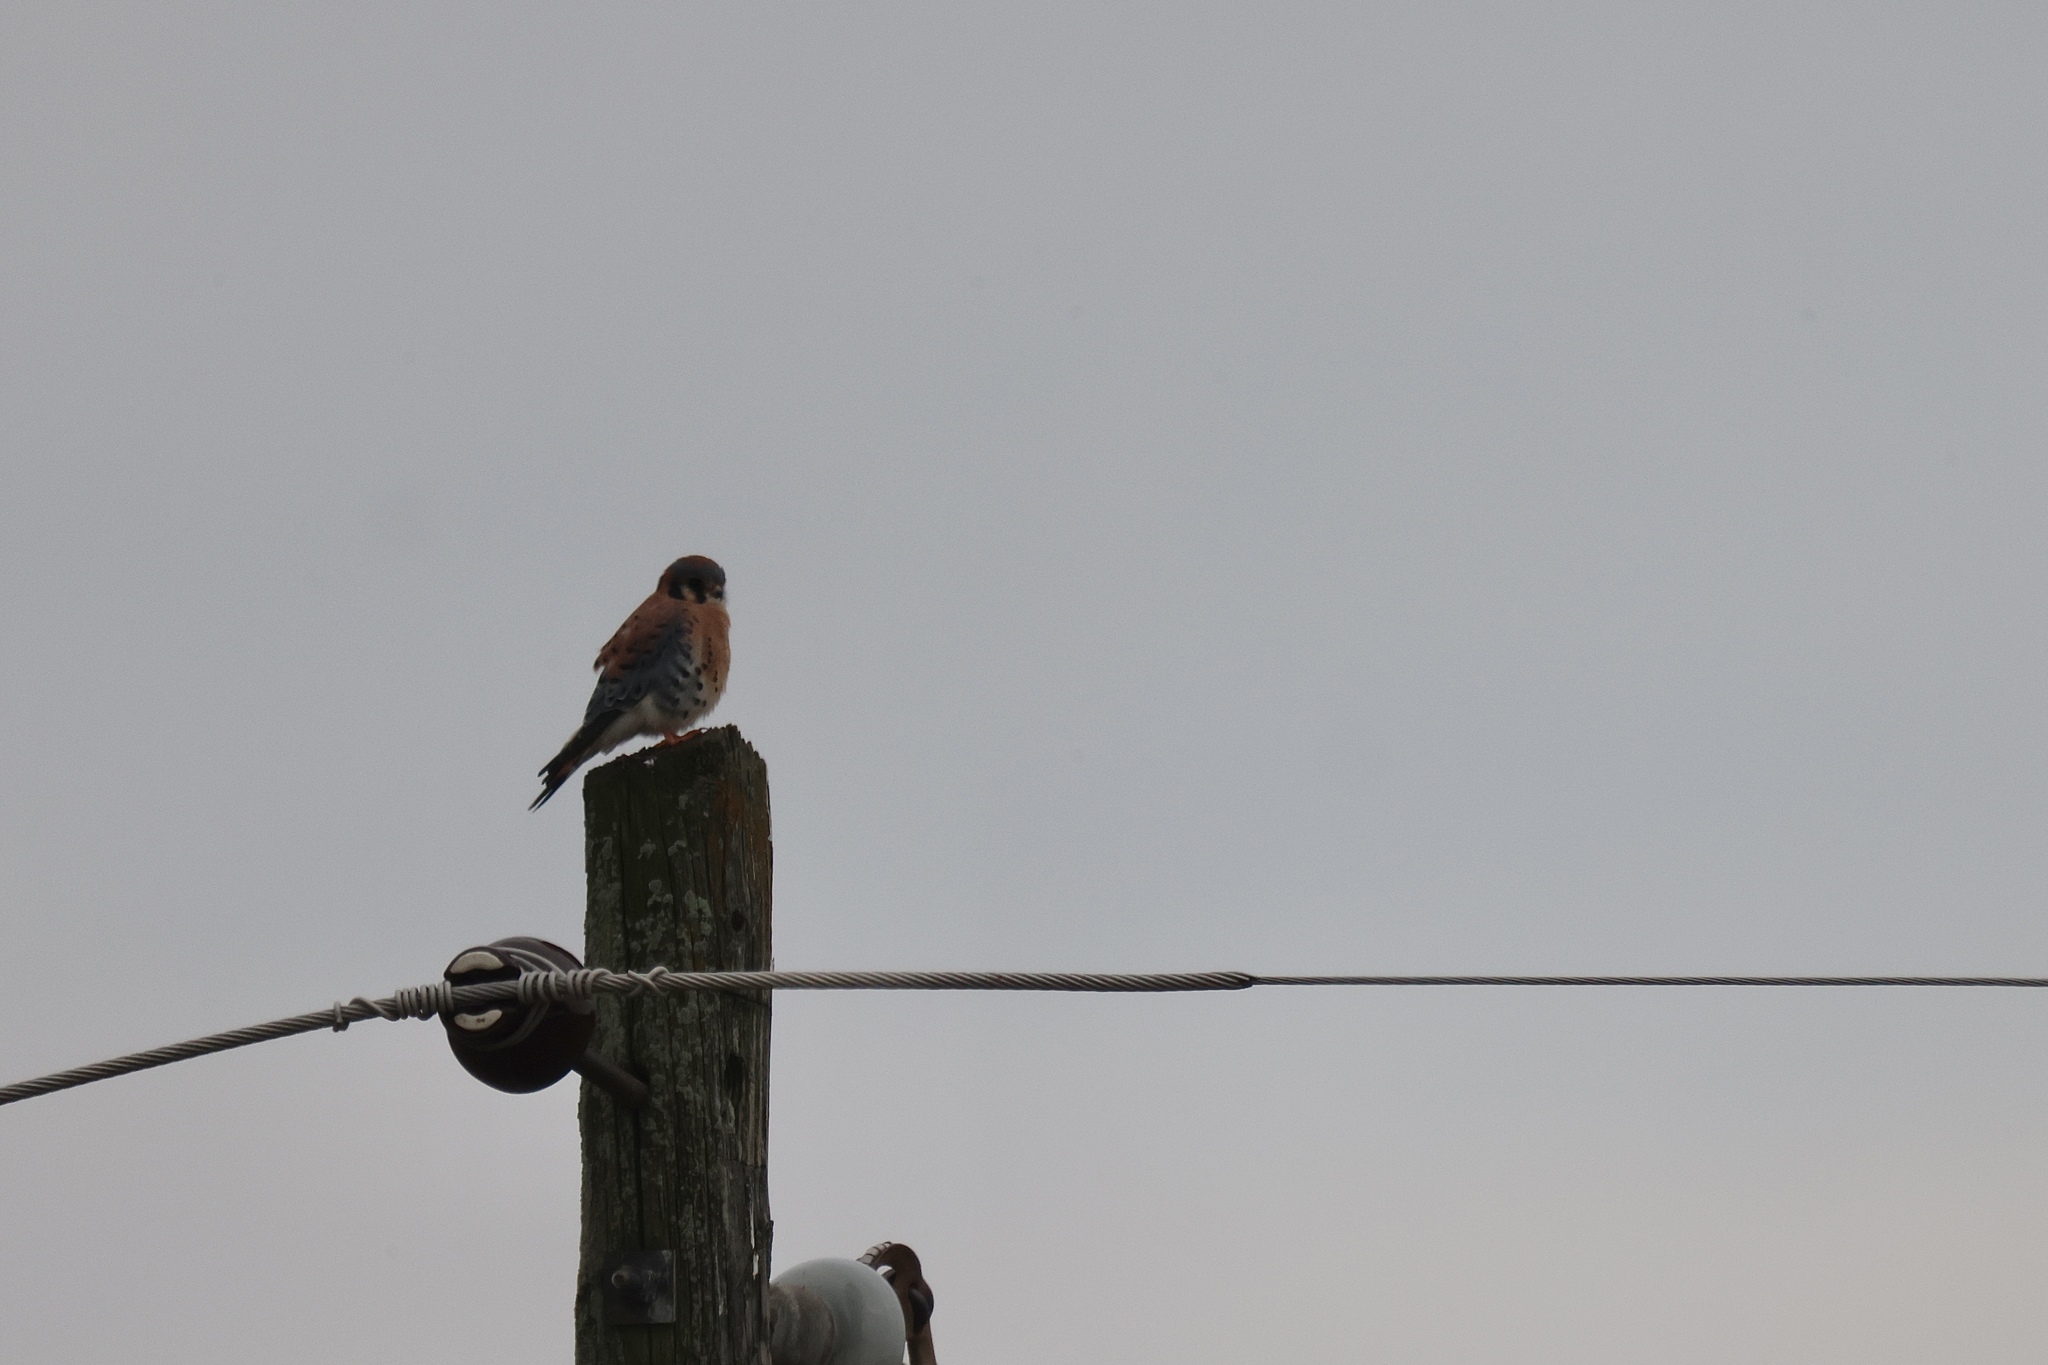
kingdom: Animalia
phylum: Chordata
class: Aves
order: Falconiformes
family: Falconidae
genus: Falco
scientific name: Falco sparverius
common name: American kestrel
